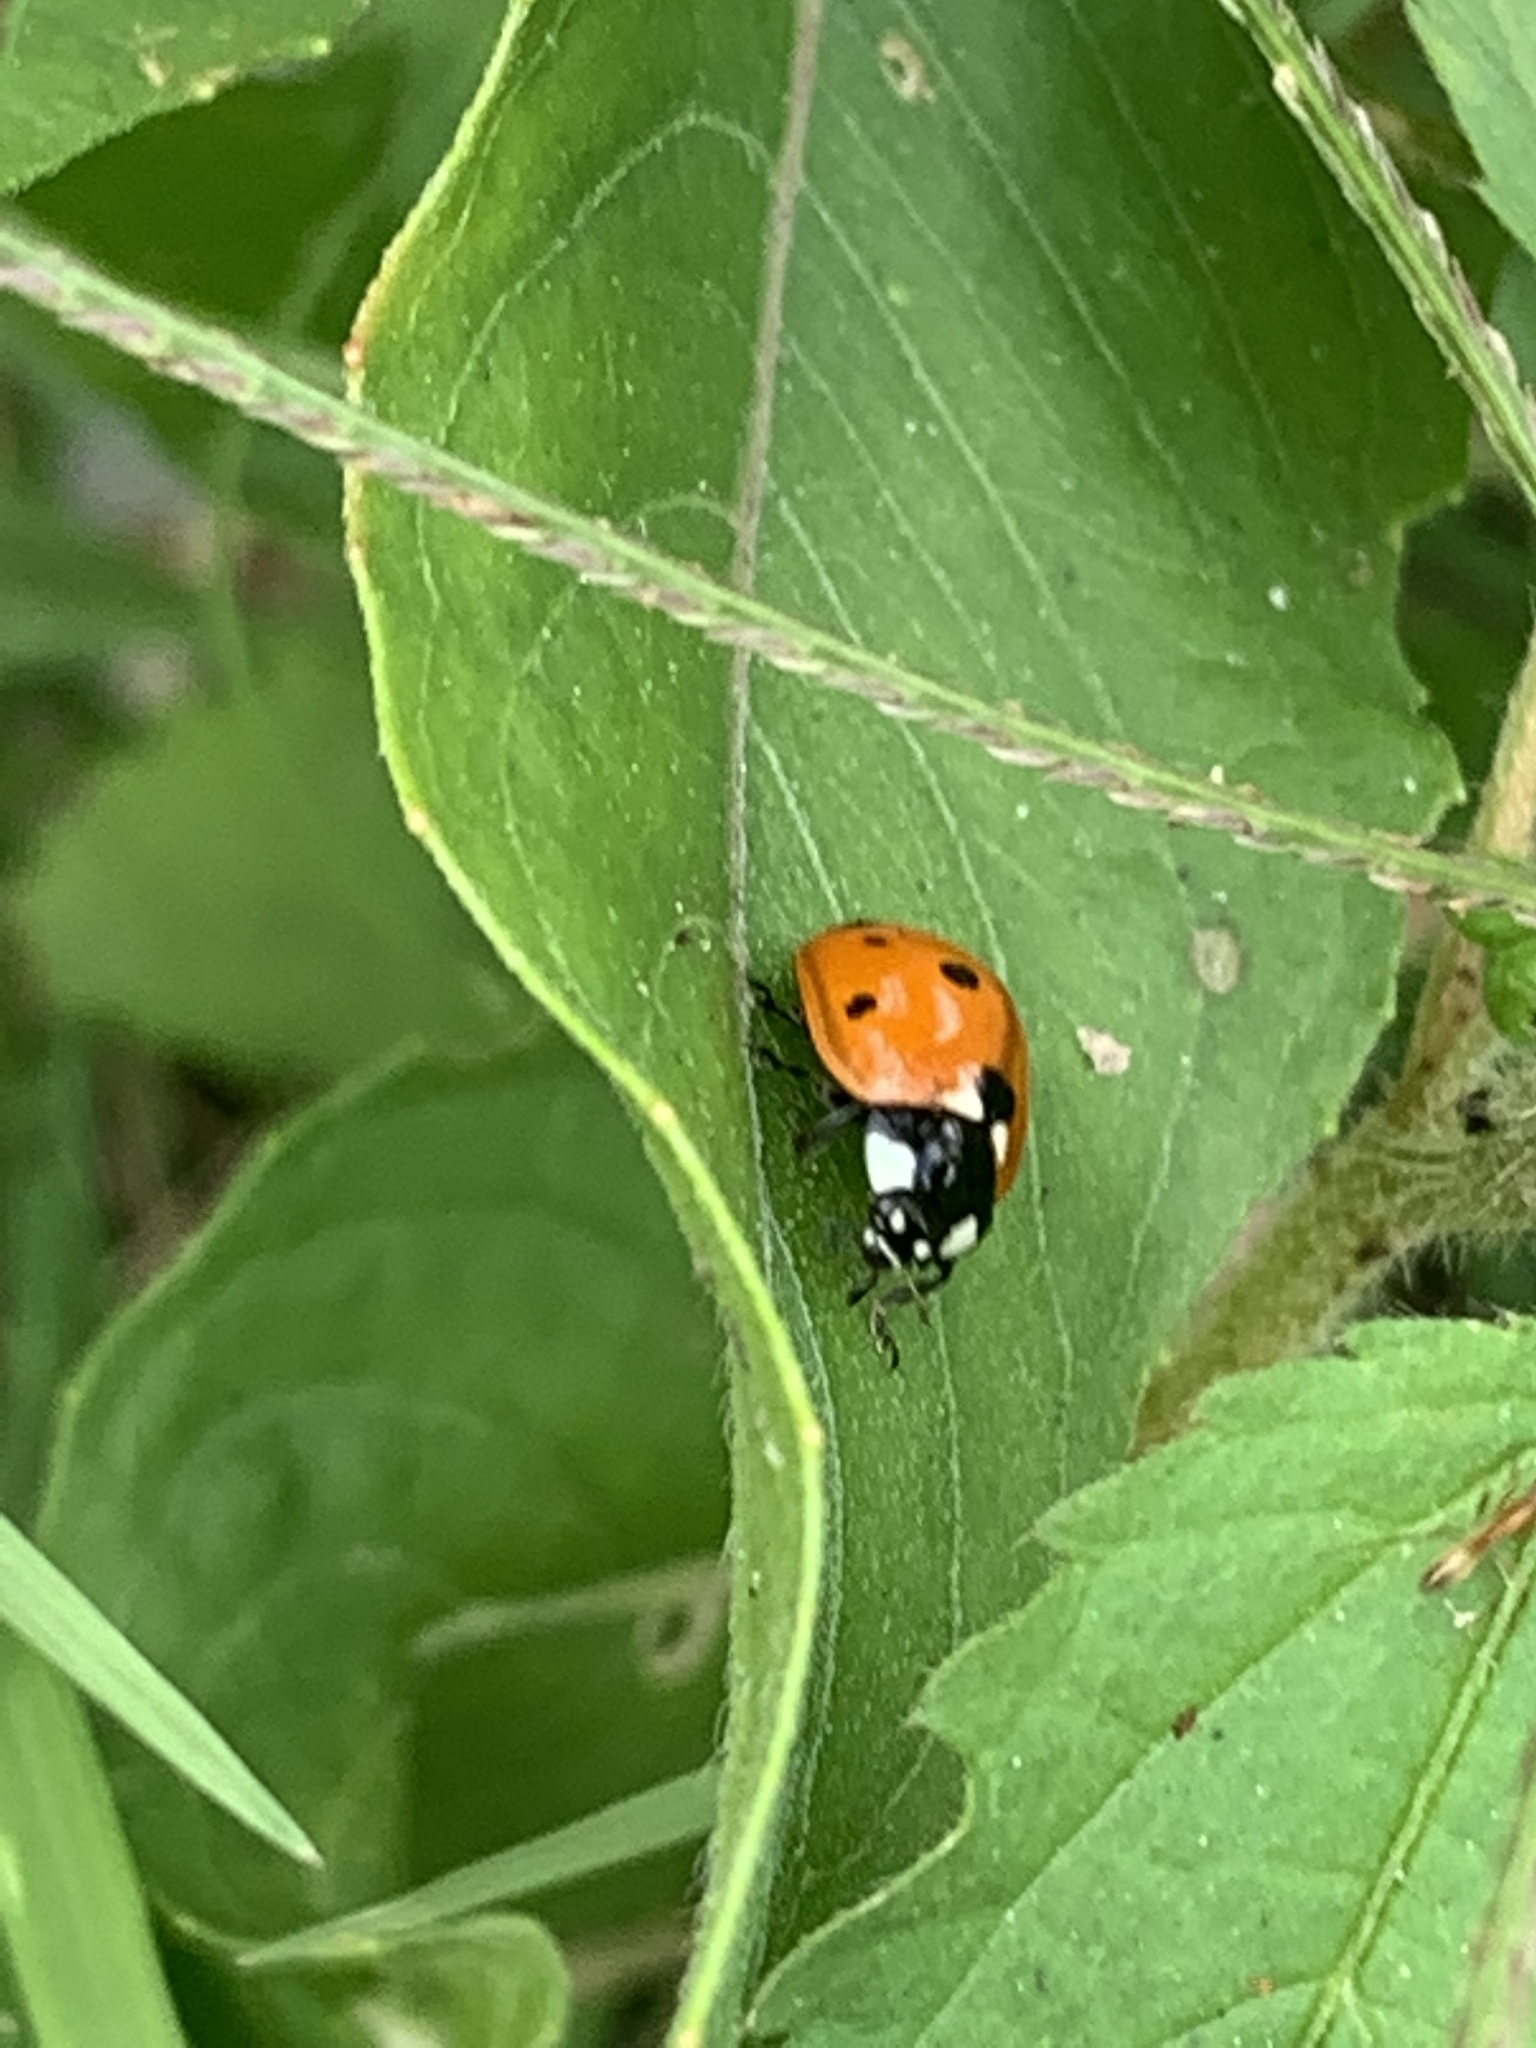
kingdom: Animalia
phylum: Arthropoda
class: Insecta
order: Coleoptera
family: Coccinellidae
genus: Coccinella
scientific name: Coccinella septempunctata
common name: Sevenspotted lady beetle
